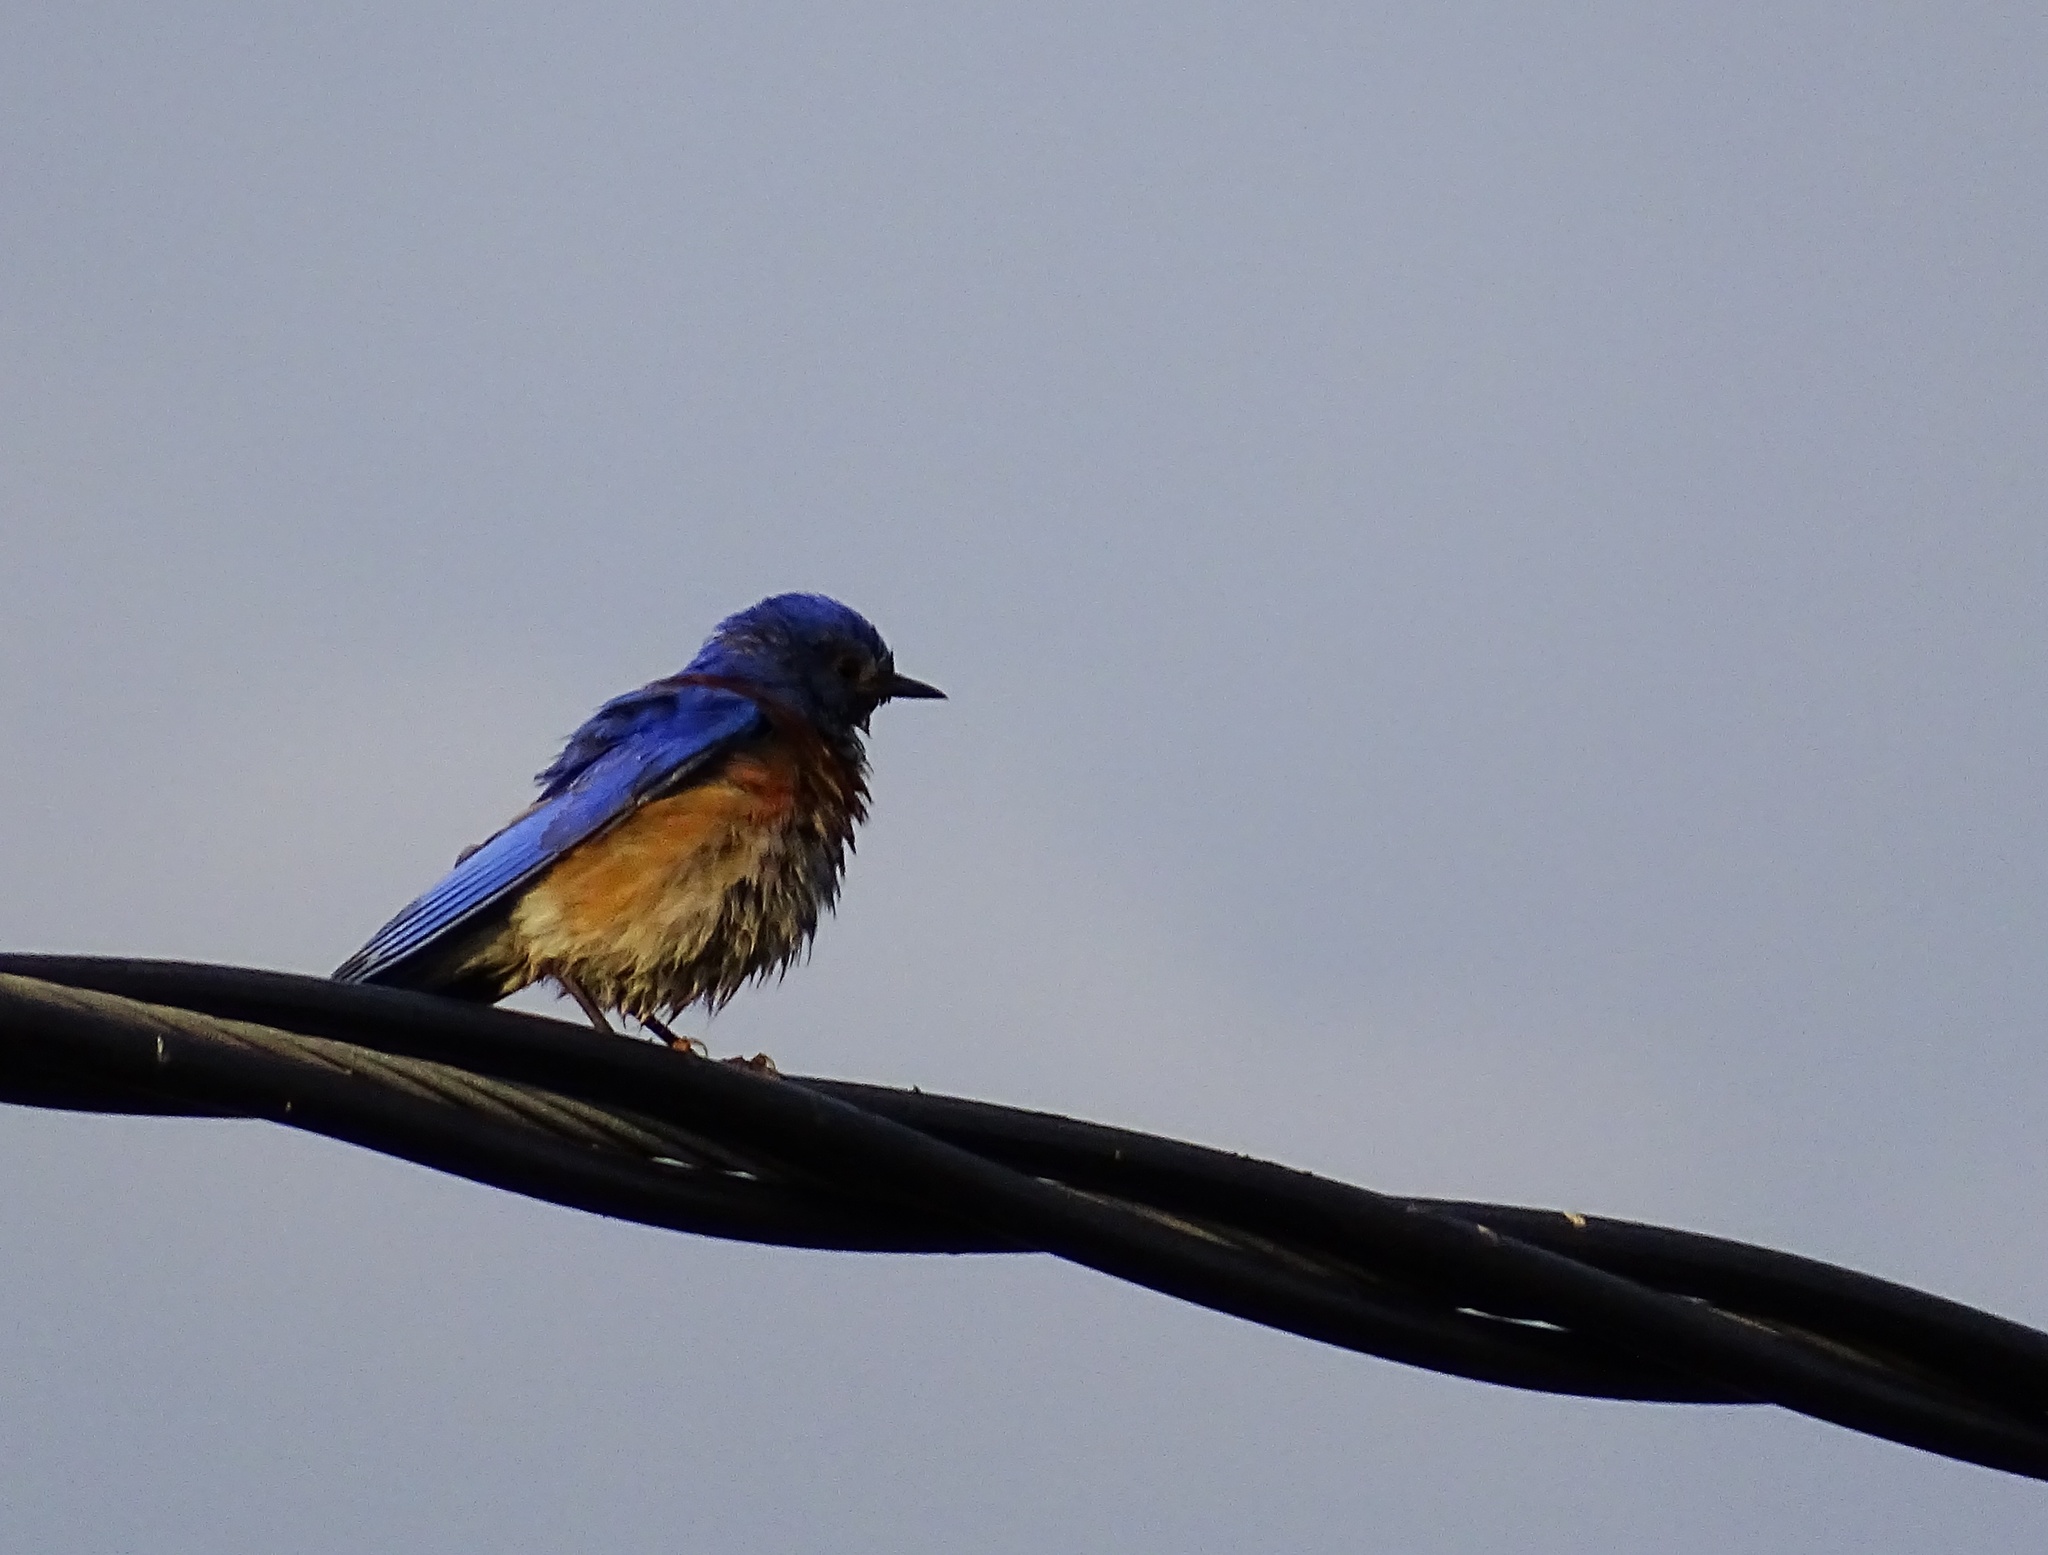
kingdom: Animalia
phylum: Chordata
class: Aves
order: Passeriformes
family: Turdidae
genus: Sialia
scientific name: Sialia mexicana
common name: Western bluebird
